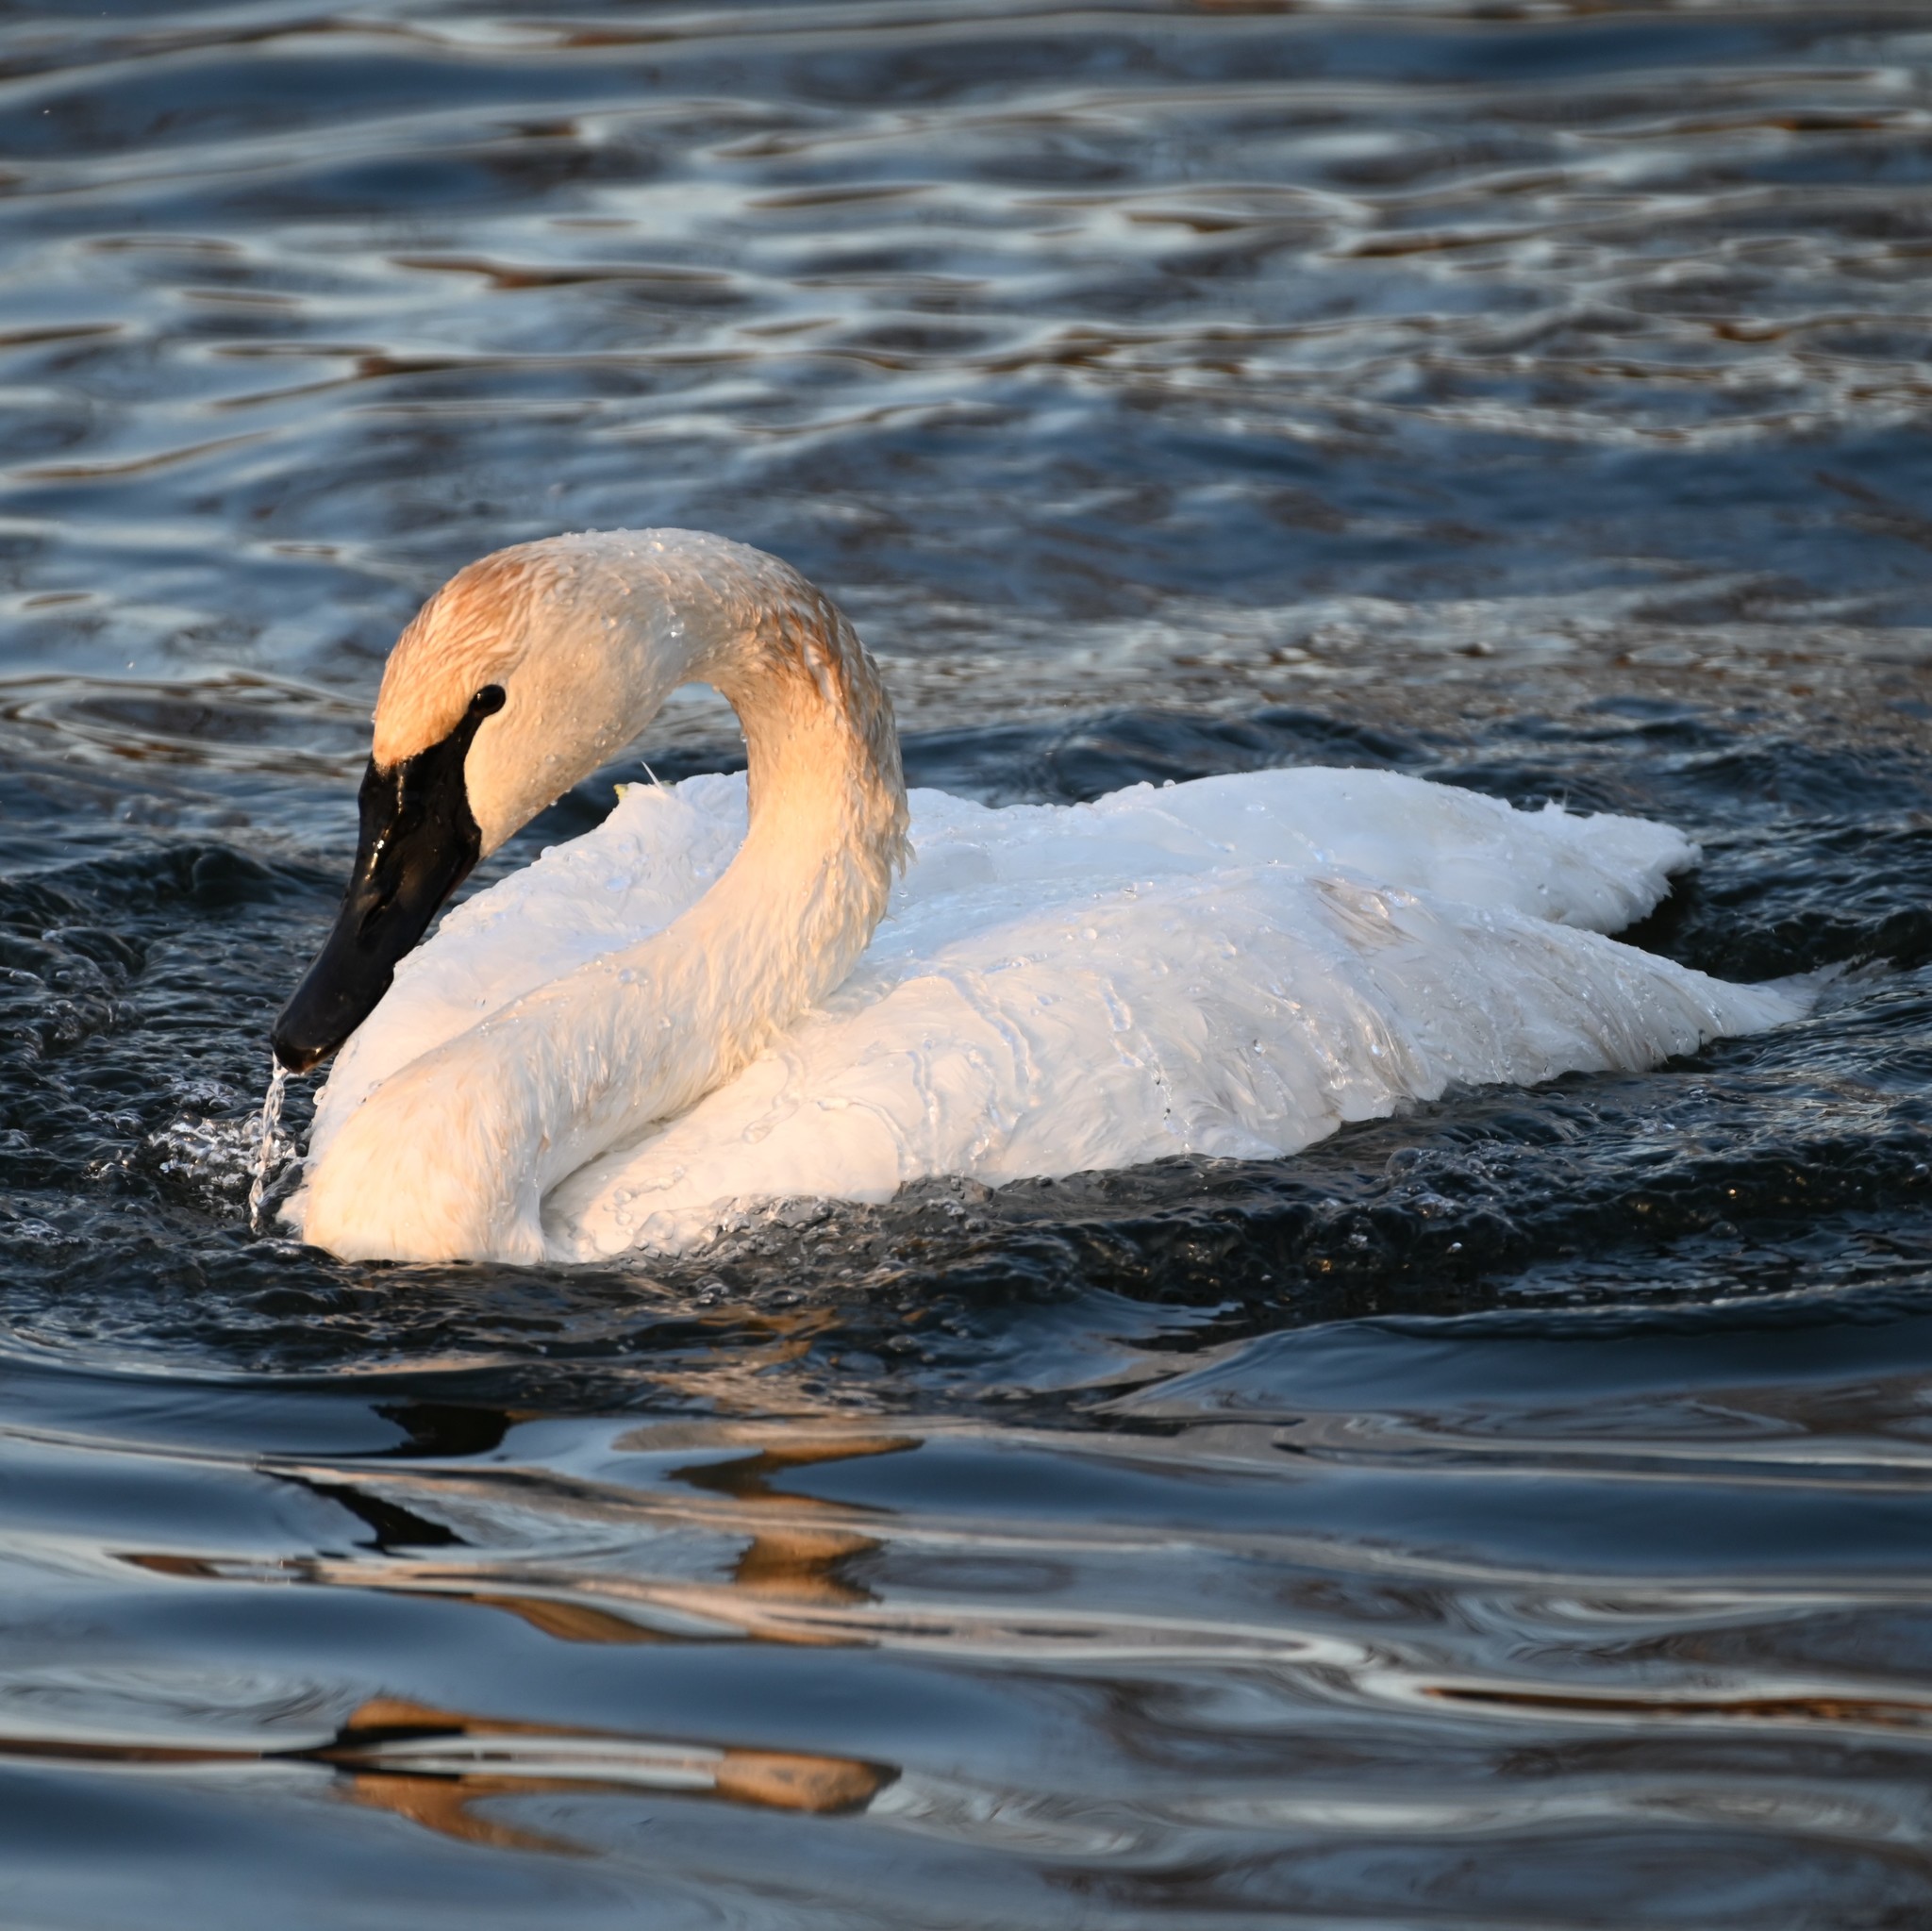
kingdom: Animalia
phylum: Chordata
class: Aves
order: Anseriformes
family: Anatidae
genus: Cygnus
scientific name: Cygnus buccinator
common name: Trumpeter swan
